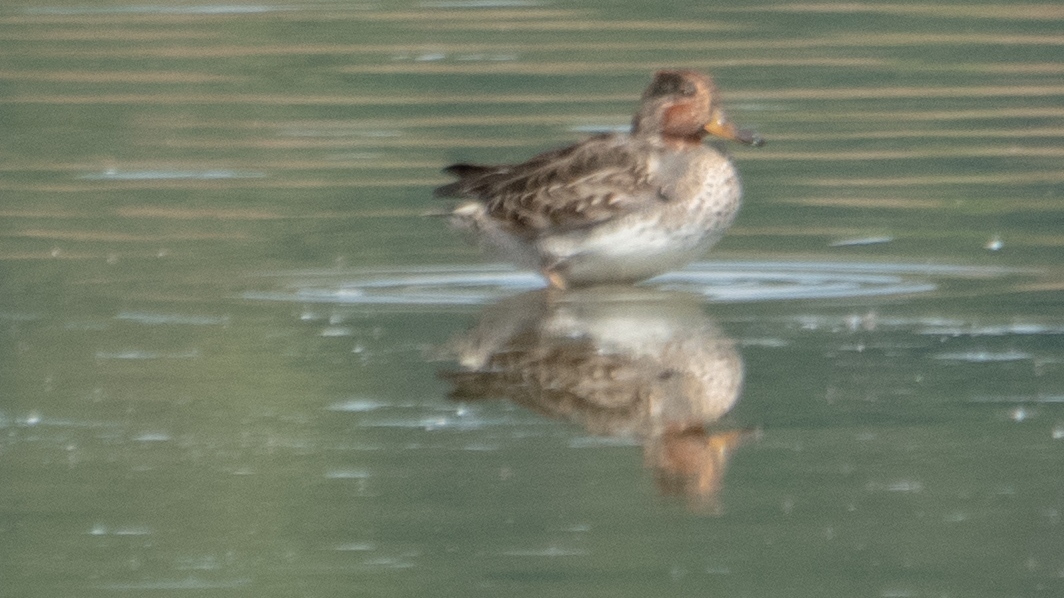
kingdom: Animalia
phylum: Chordata
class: Aves
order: Anseriformes
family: Anatidae
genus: Anas
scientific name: Anas crecca
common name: Eurasian teal
